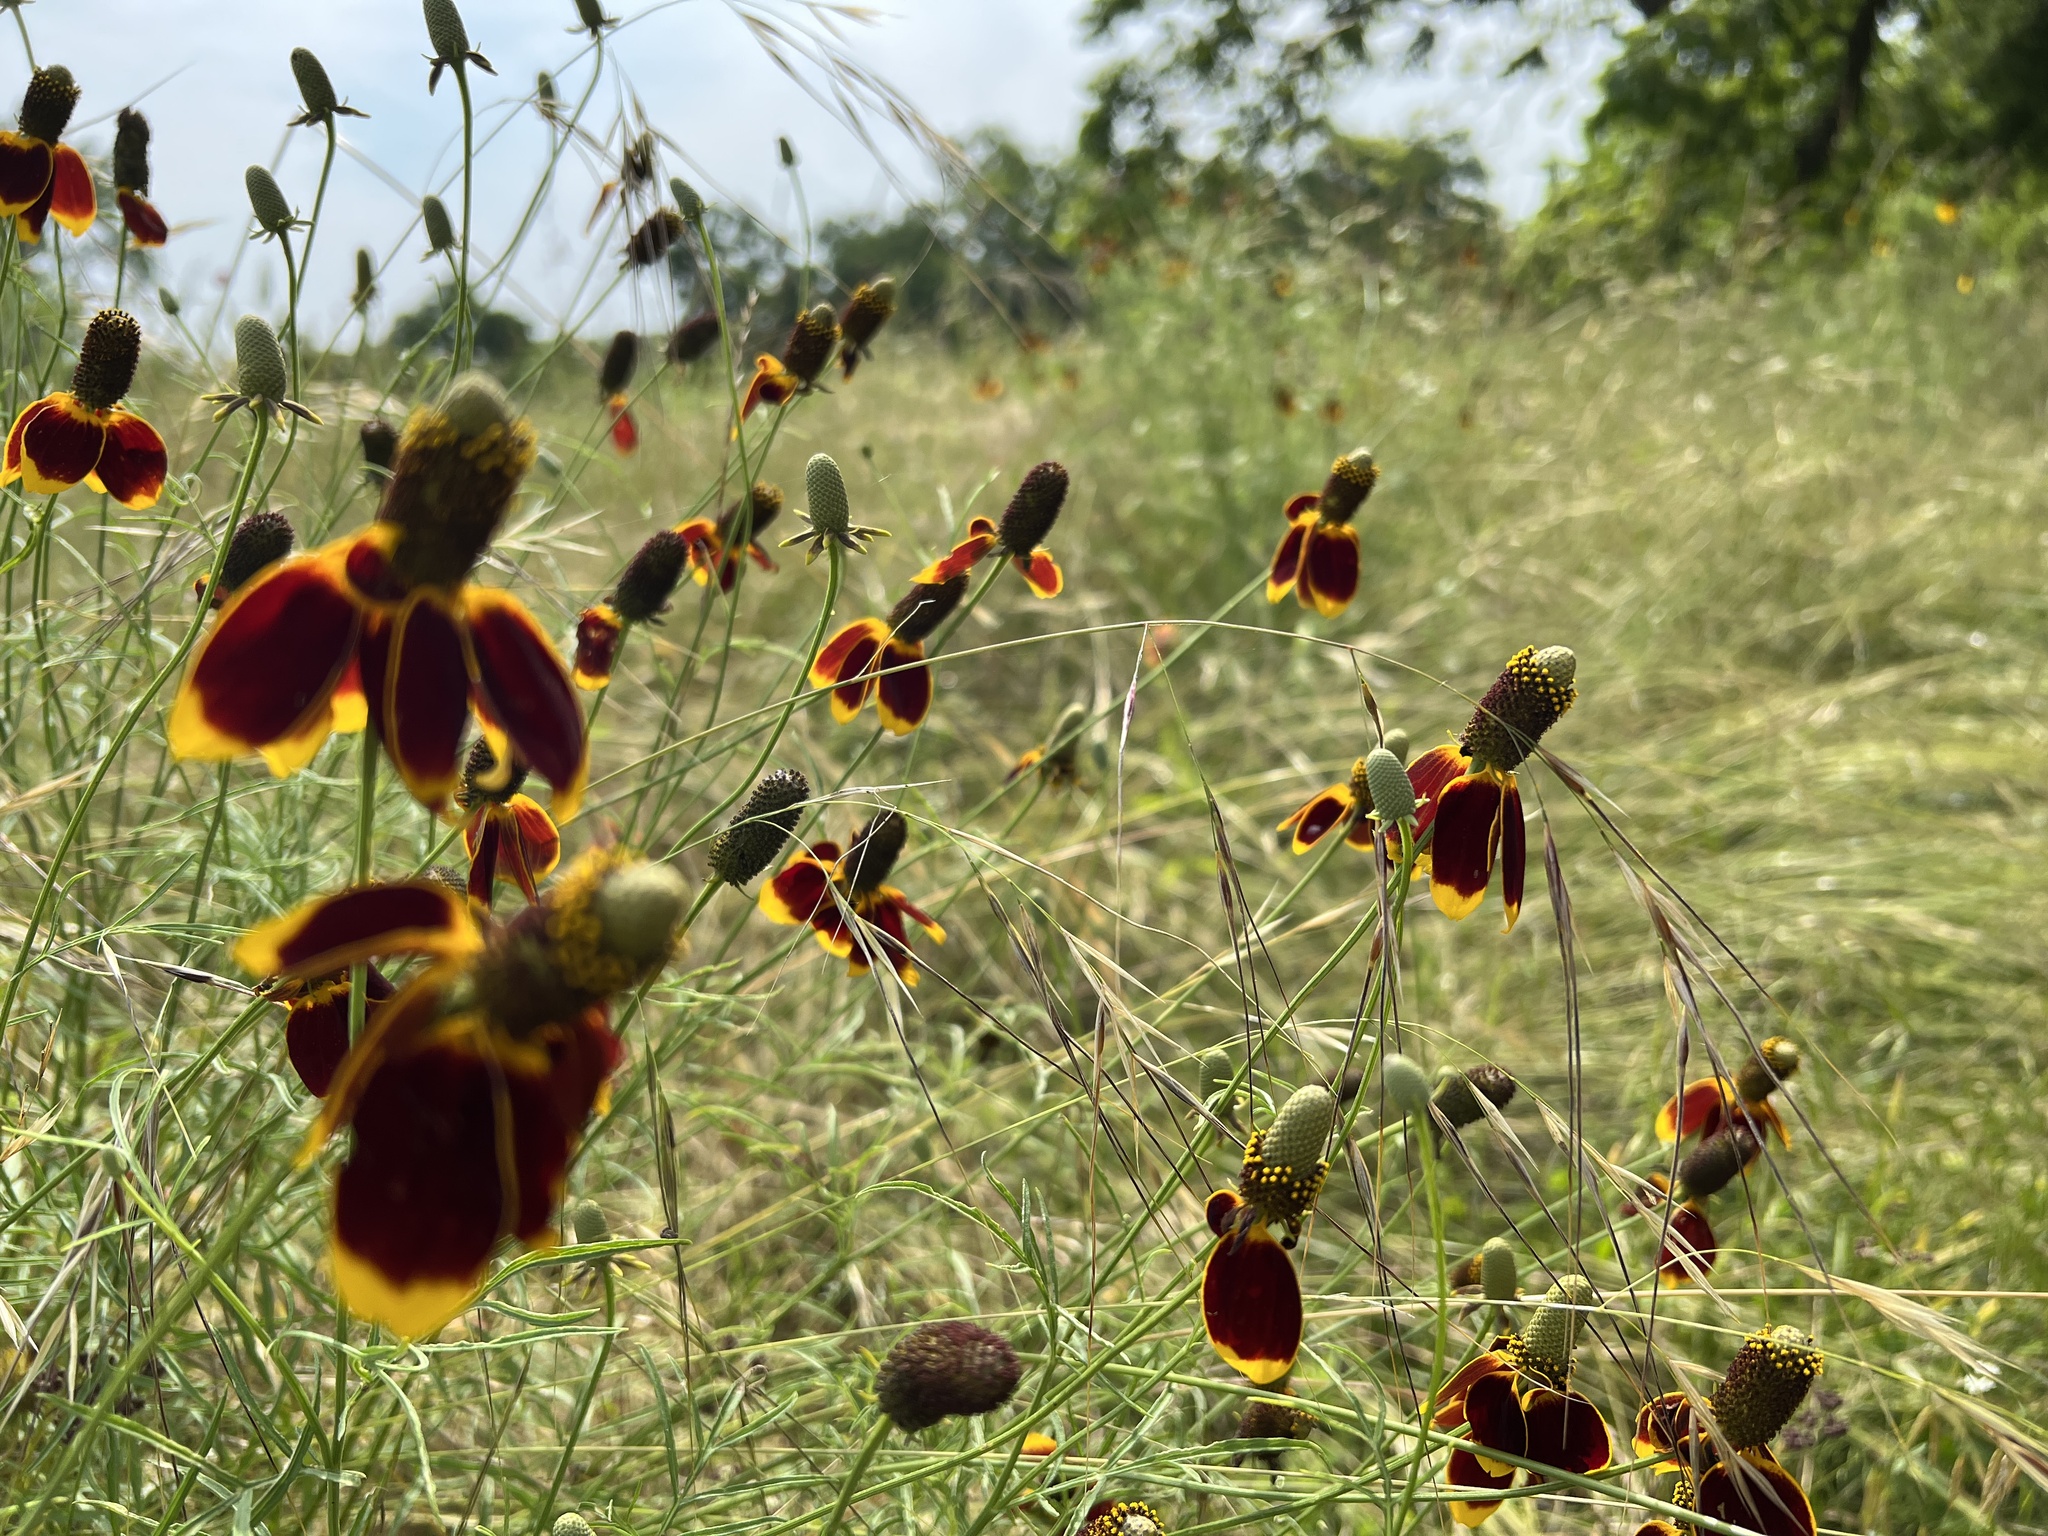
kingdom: Plantae
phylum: Tracheophyta
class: Magnoliopsida
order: Asterales
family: Asteraceae
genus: Ratibida
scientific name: Ratibida columnifera
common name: Prairie coneflower
